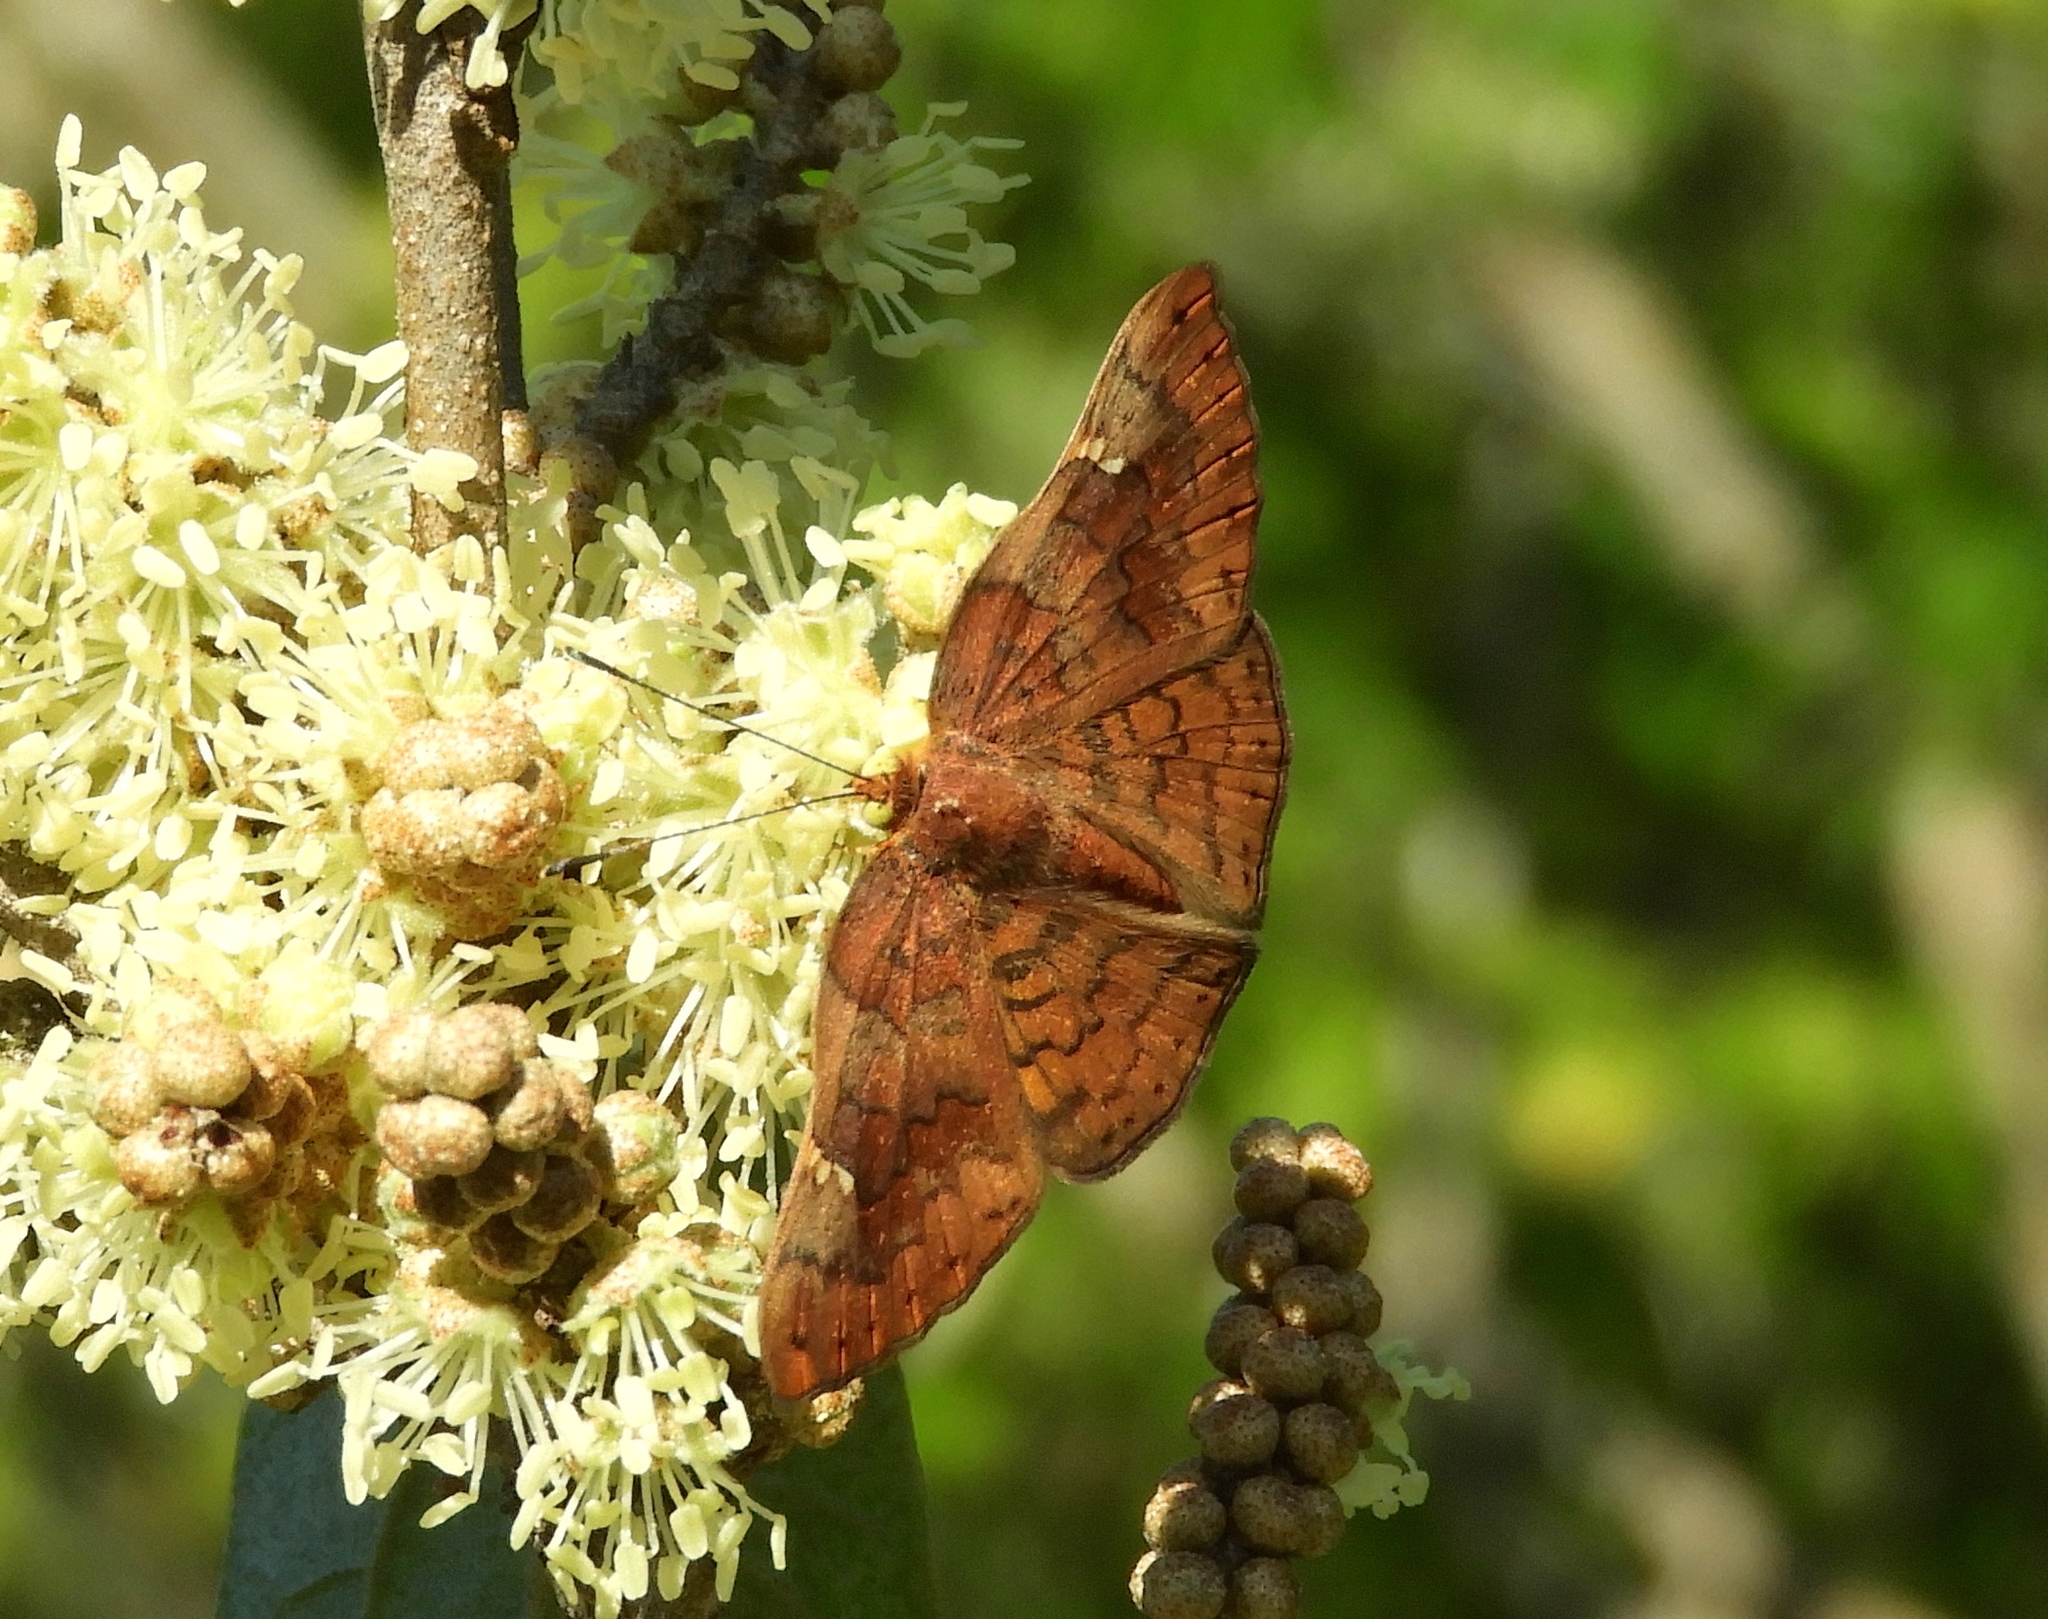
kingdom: Animalia
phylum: Arthropoda
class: Insecta
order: Lepidoptera
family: Riodinidae
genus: Curvie
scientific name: Curvie emesia
